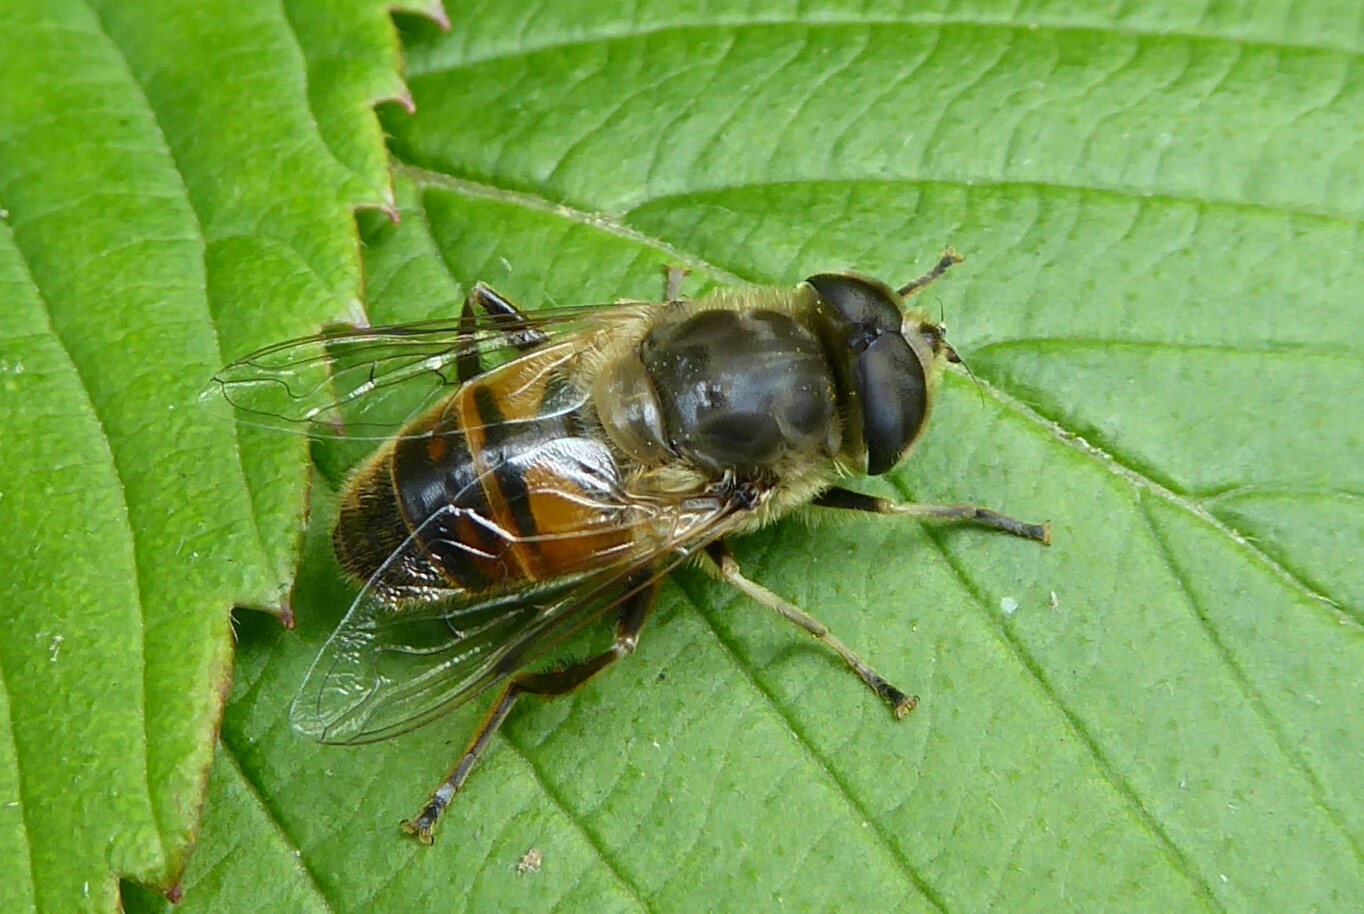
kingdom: Animalia
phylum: Arthropoda
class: Insecta
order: Diptera
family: Syrphidae
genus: Eristalis
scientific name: Eristalis tenax
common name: Drone fly
